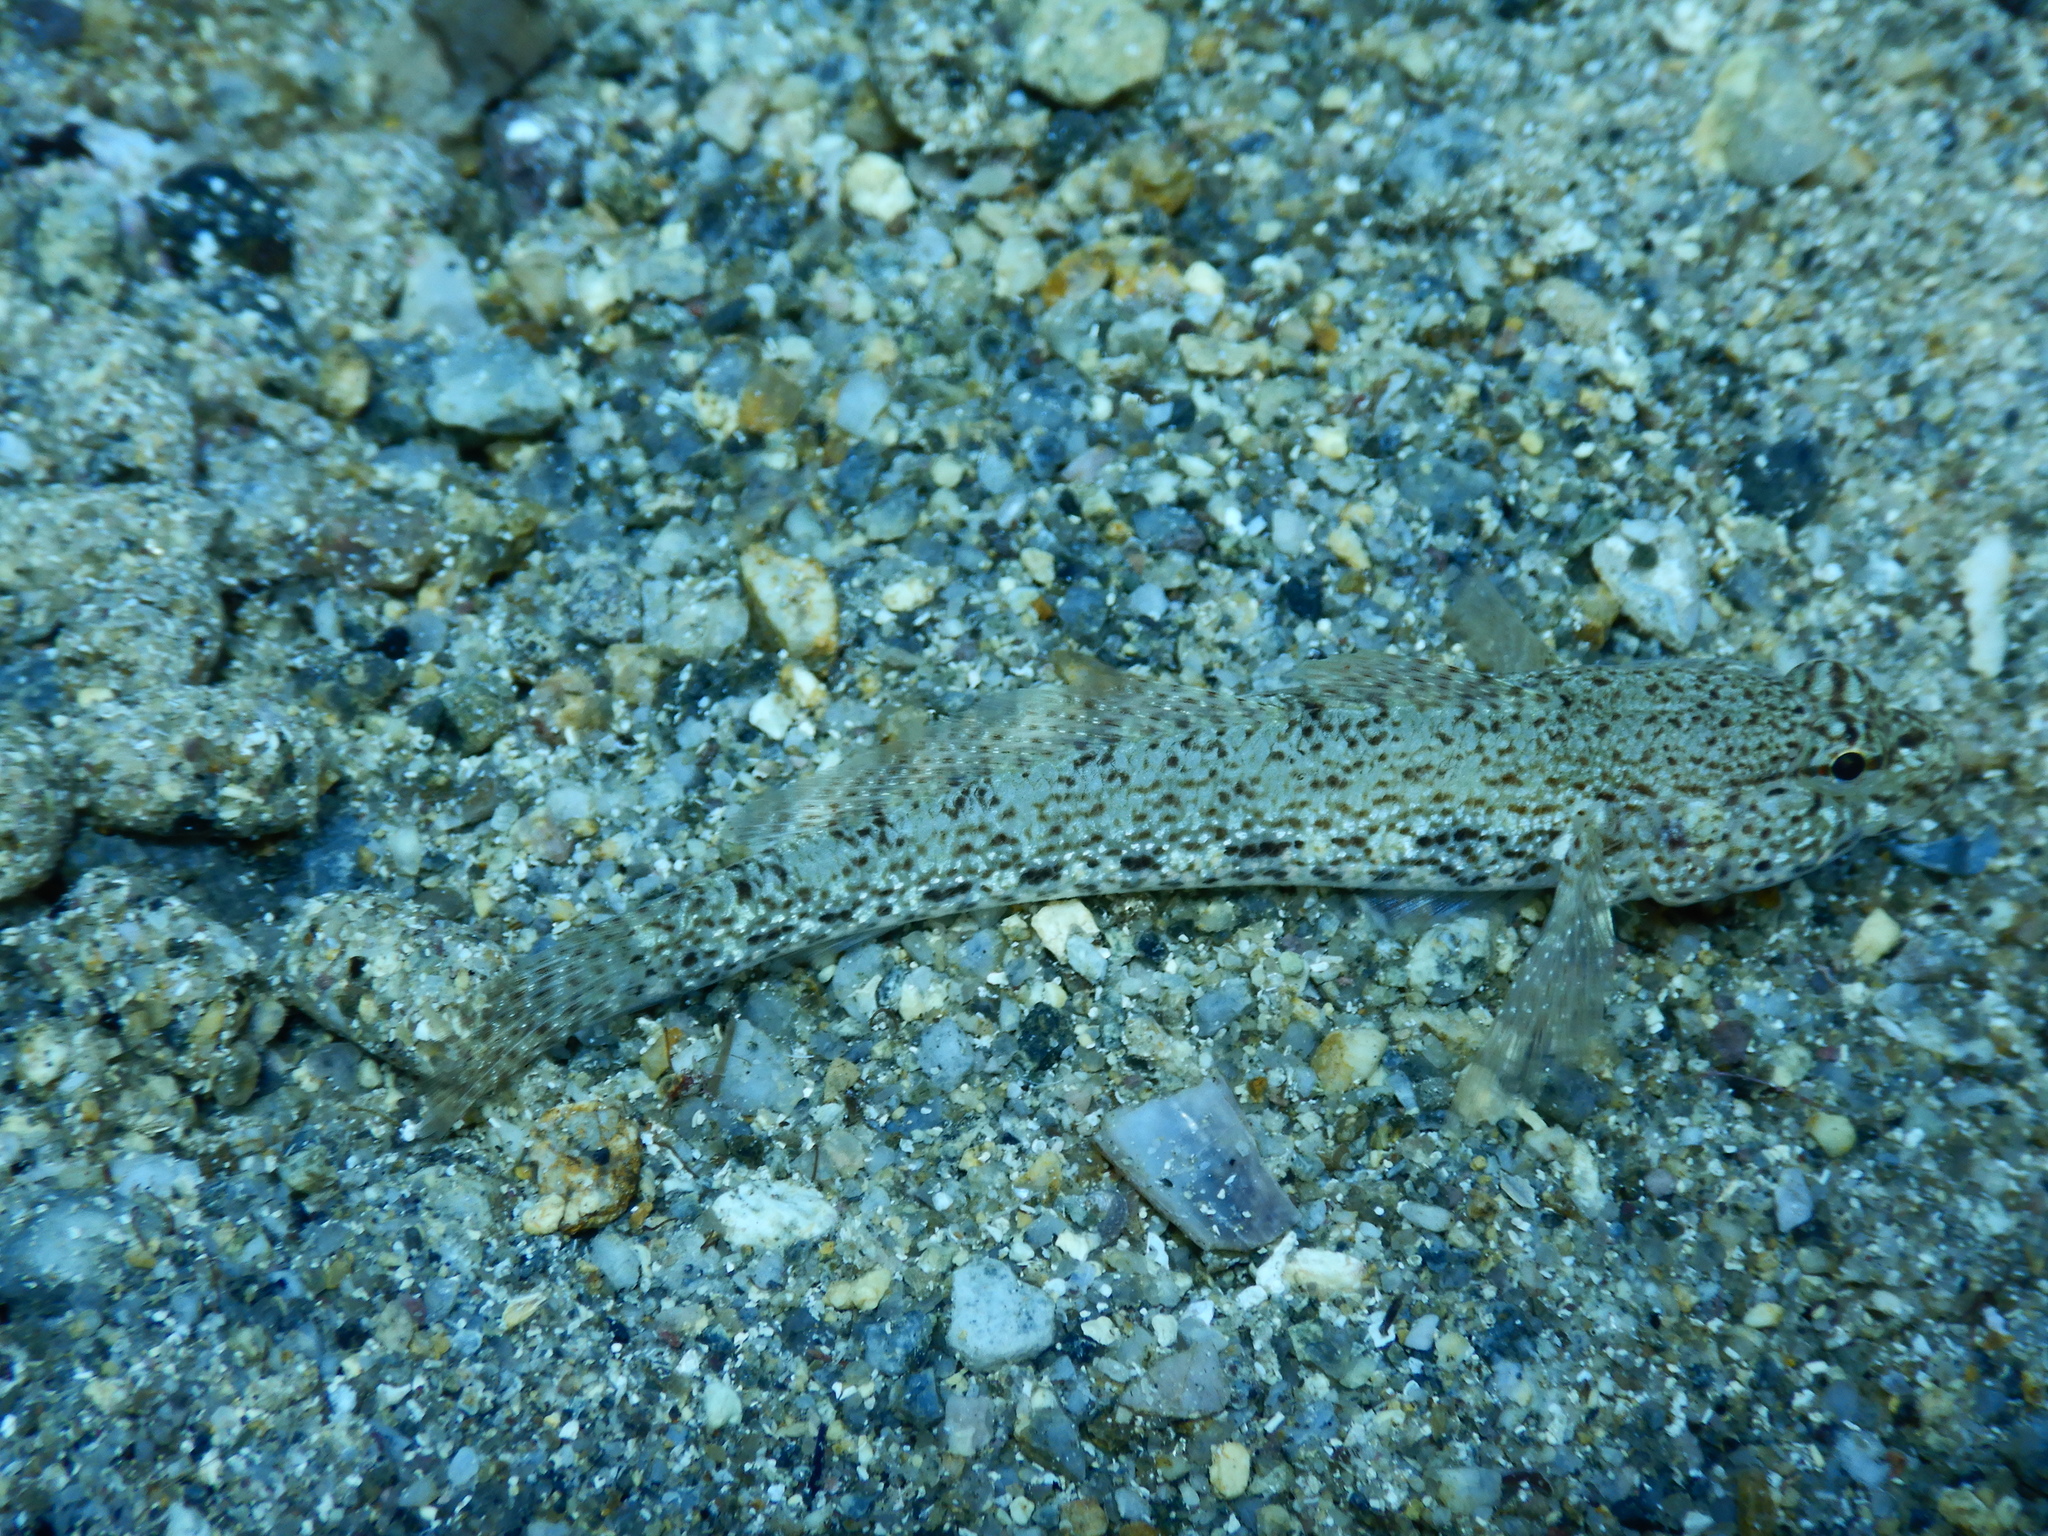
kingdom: Animalia
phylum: Chordata
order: Perciformes
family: Gobiidae
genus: Gobius
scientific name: Gobius incognitus
